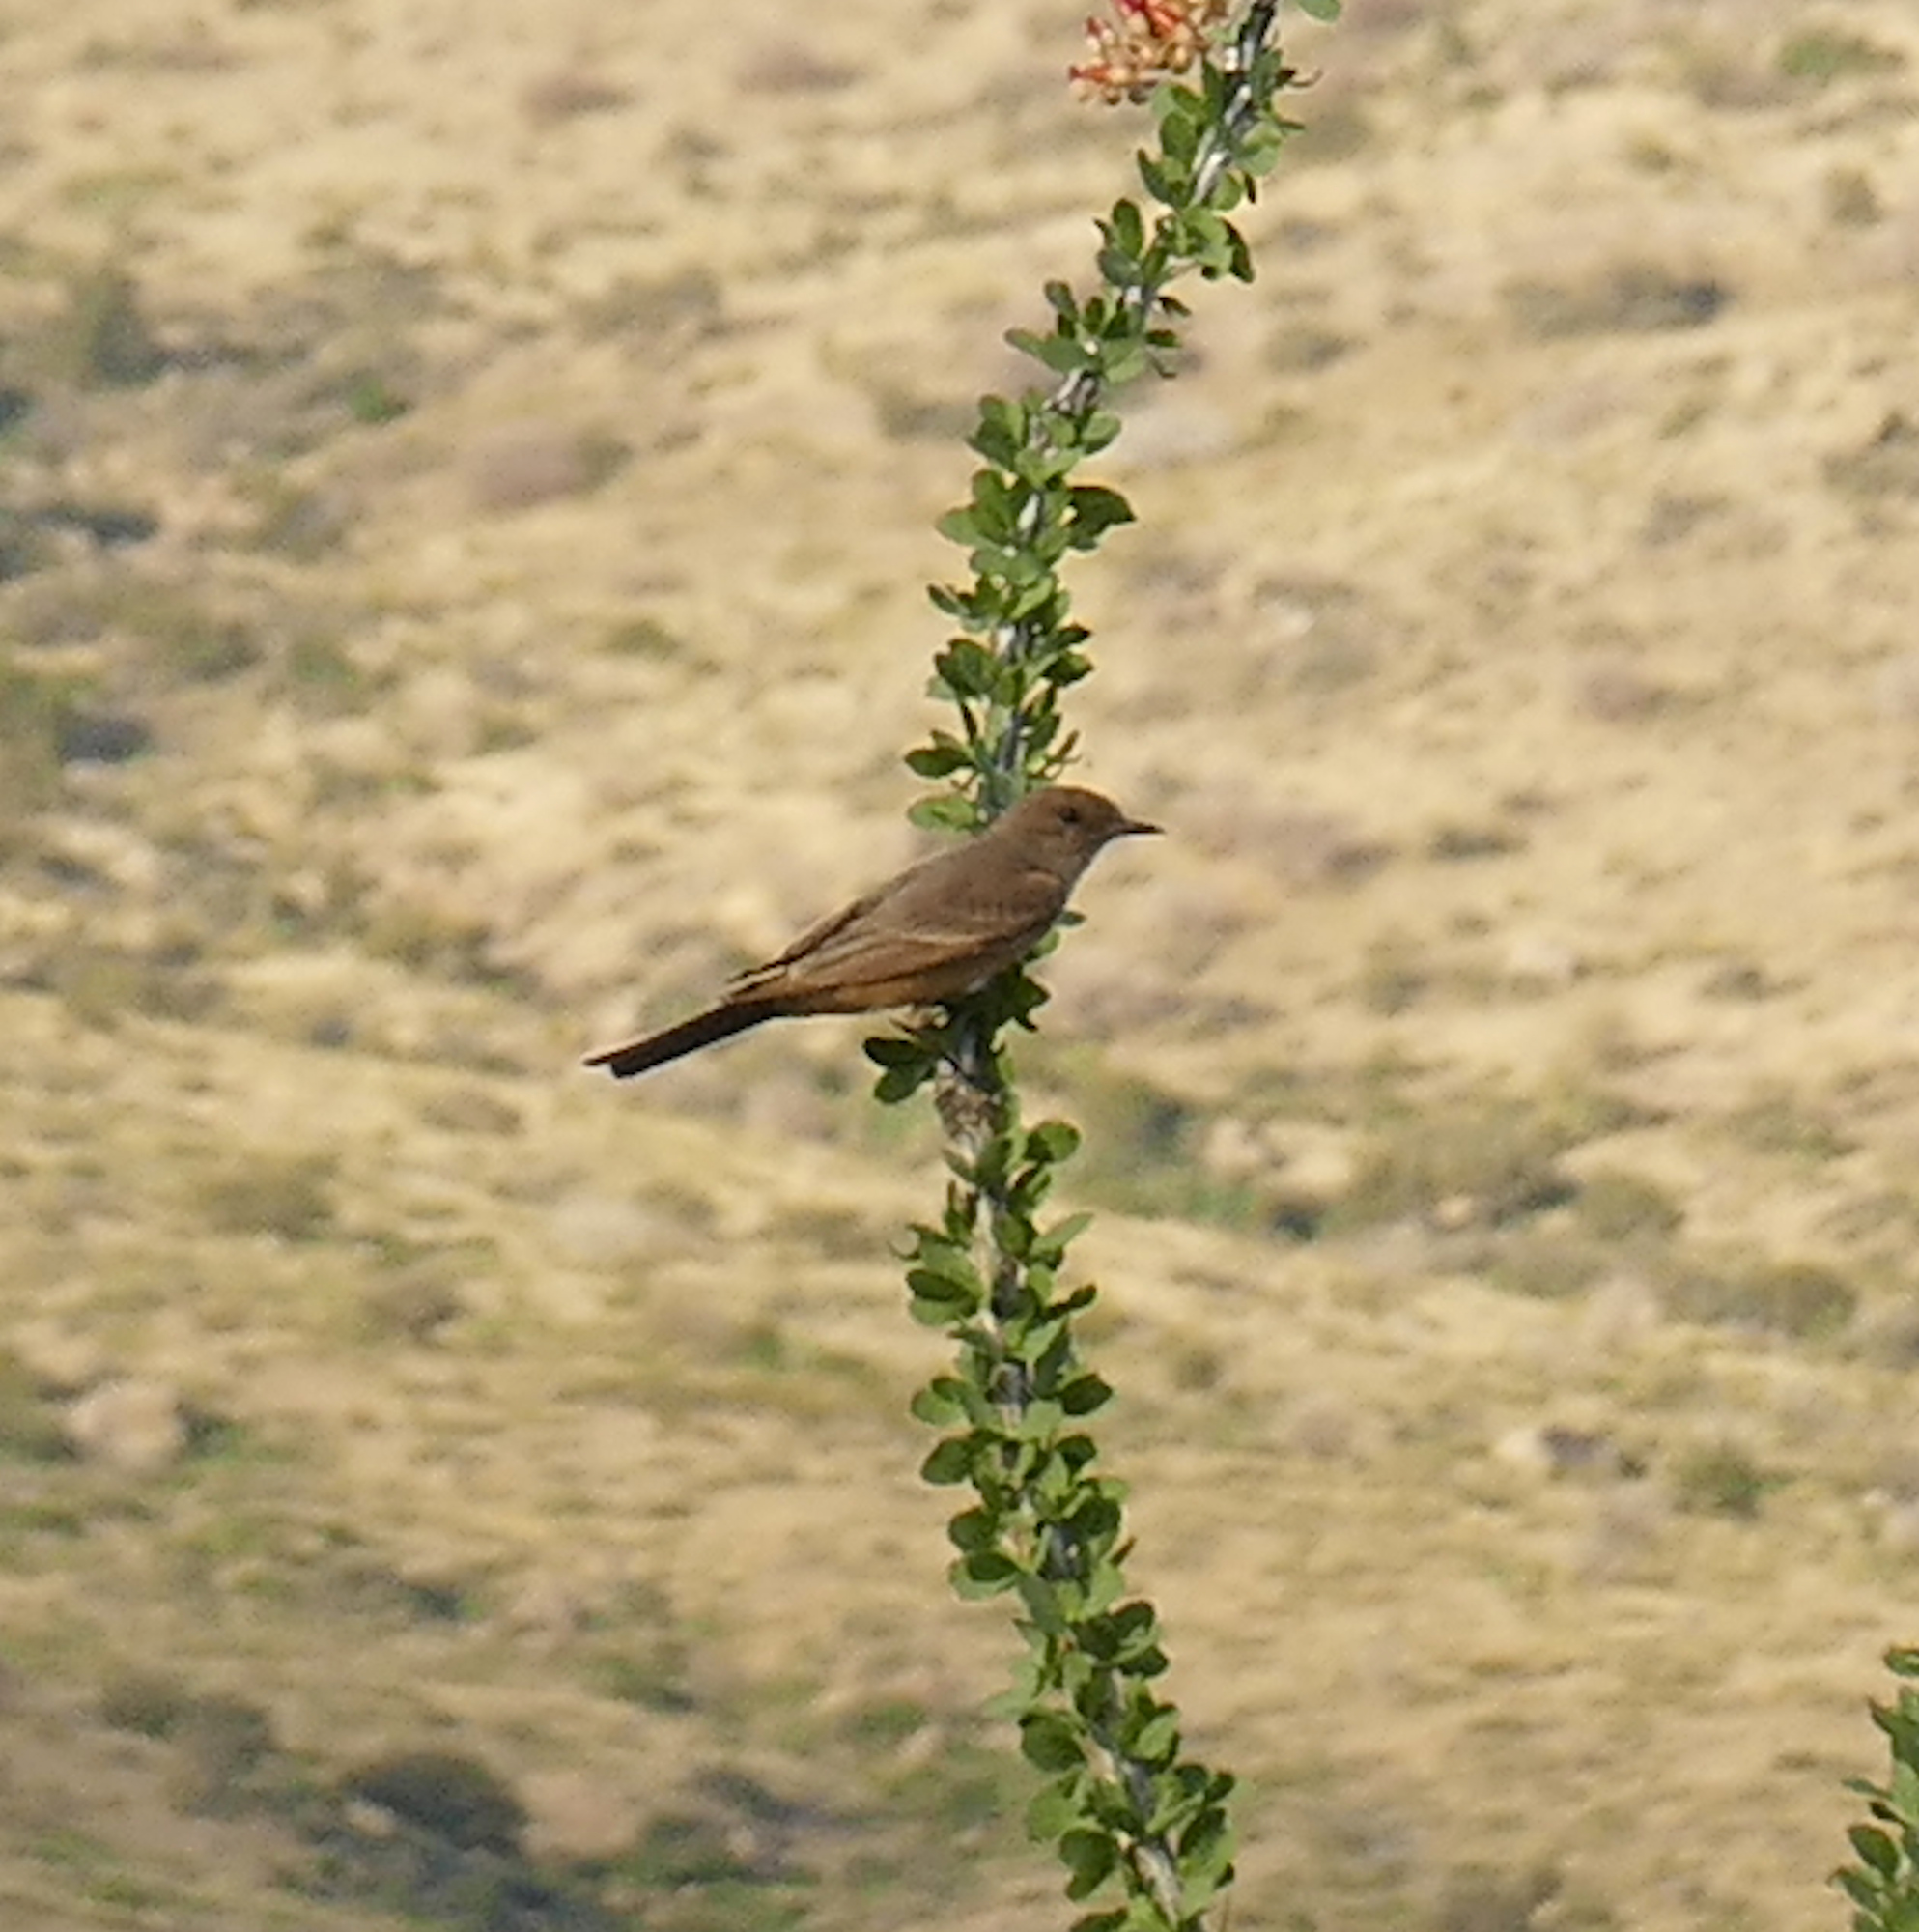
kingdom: Animalia
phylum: Chordata
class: Aves
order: Passeriformes
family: Tyrannidae
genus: Sayornis
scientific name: Sayornis saya
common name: Say's phoebe
